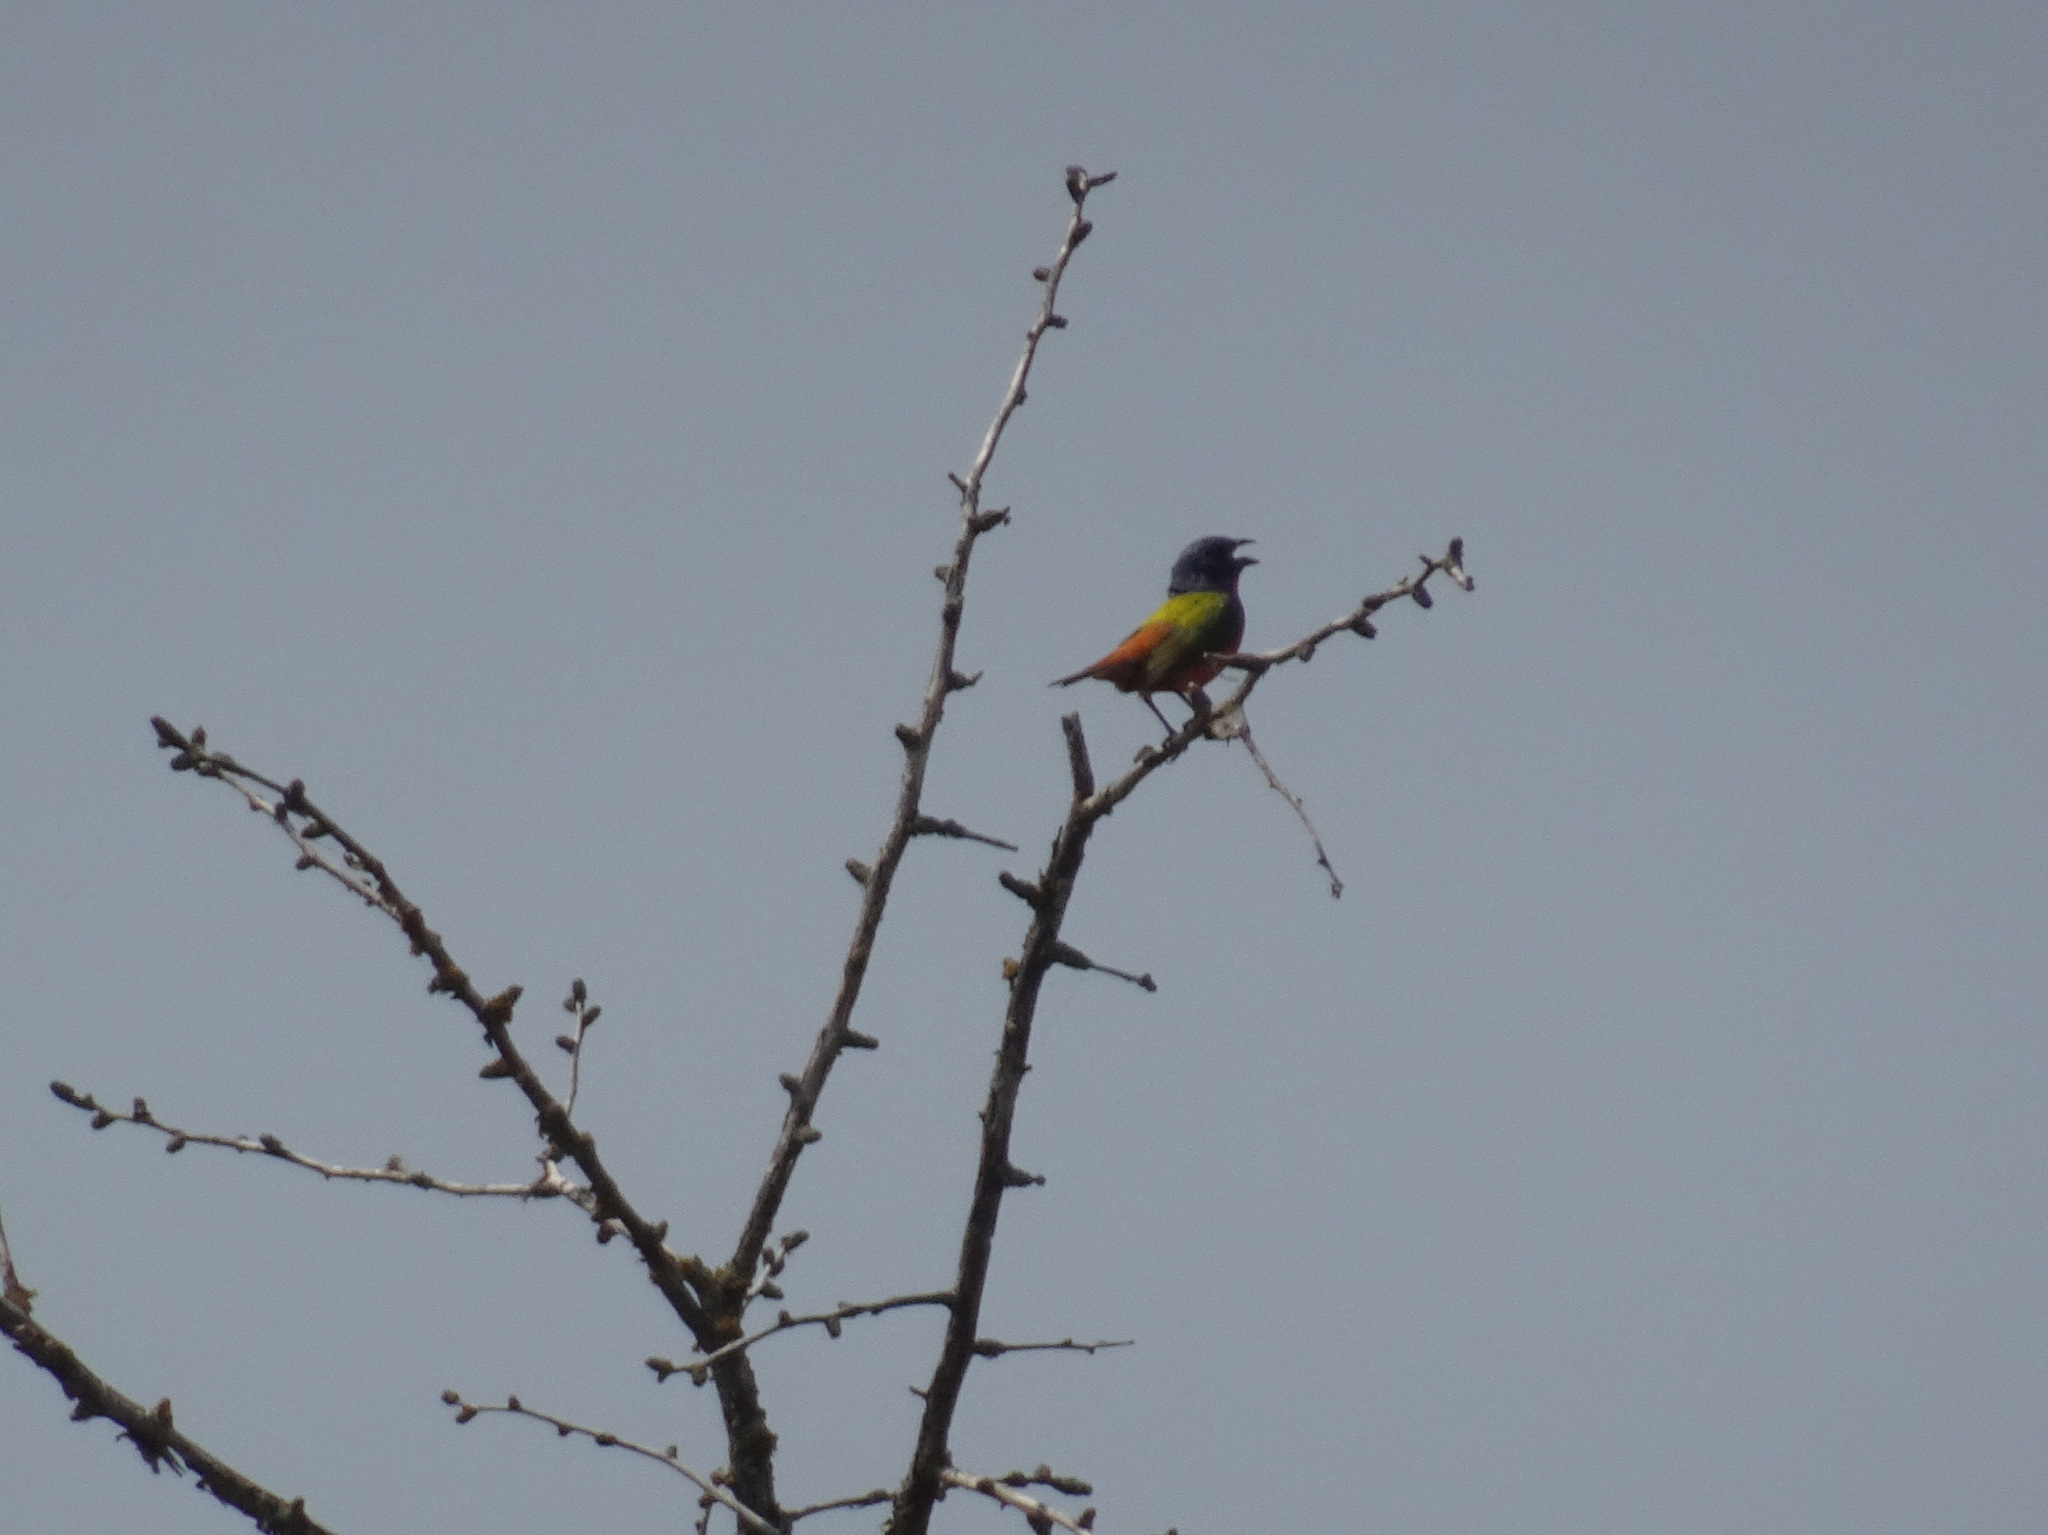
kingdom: Animalia
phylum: Chordata
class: Aves
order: Passeriformes
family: Cardinalidae
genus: Passerina
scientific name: Passerina ciris
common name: Painted bunting
